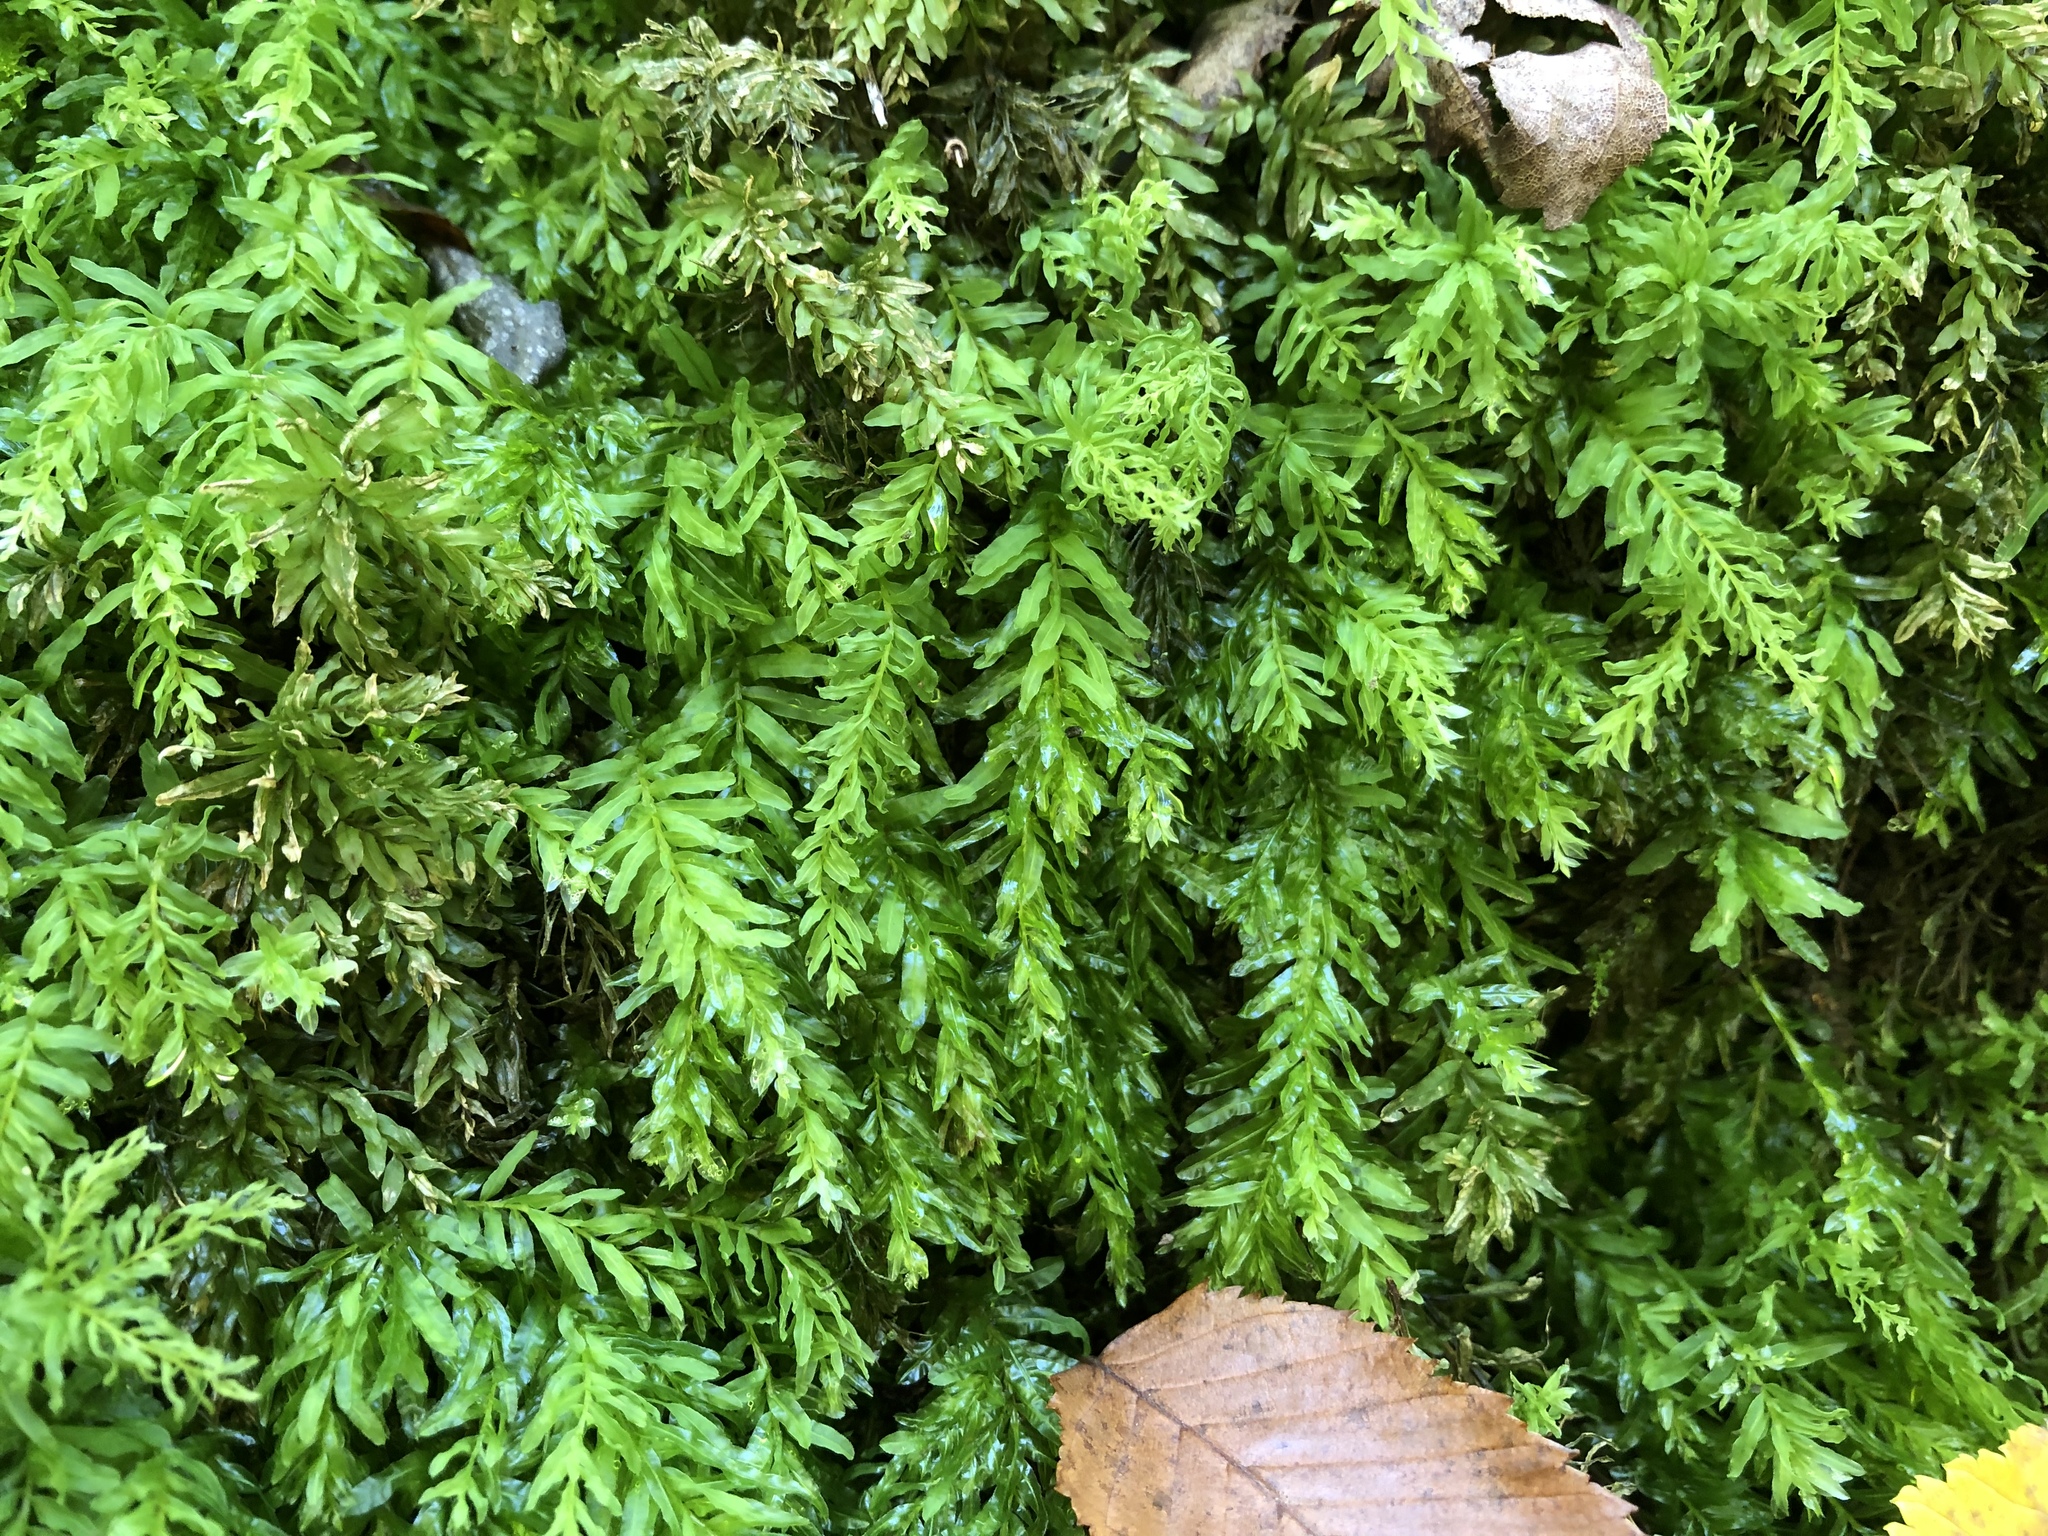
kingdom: Plantae
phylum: Bryophyta
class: Bryopsida
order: Bryales
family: Mniaceae
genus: Plagiomnium
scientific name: Plagiomnium undulatum
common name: Hart's-tongue thyme-moss
